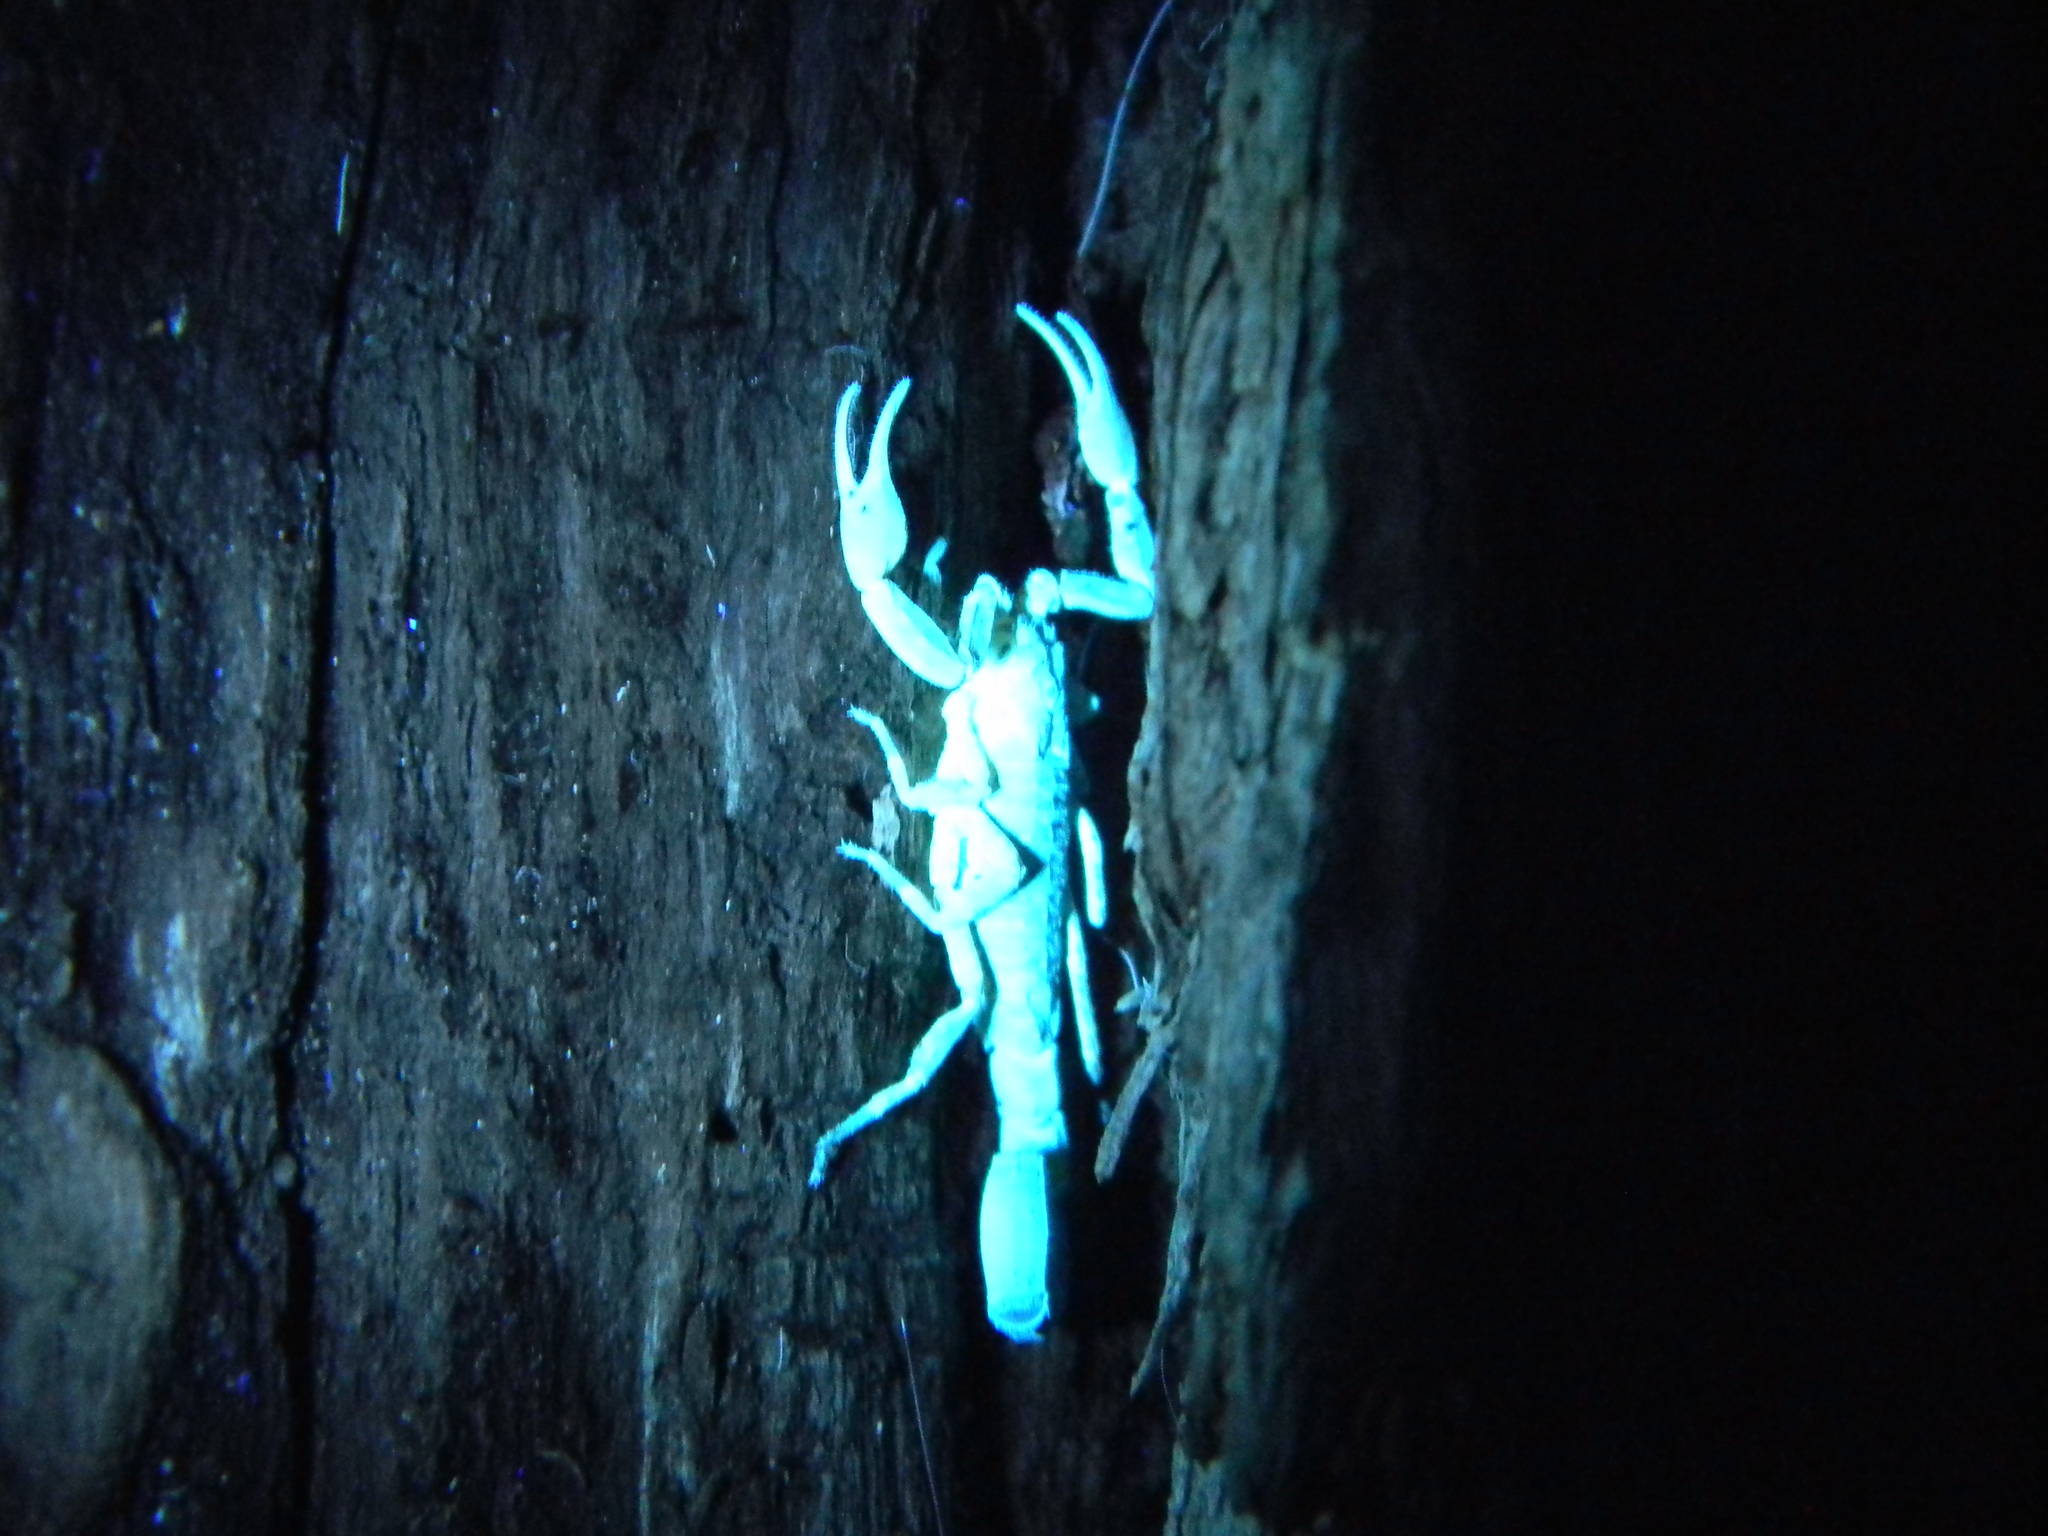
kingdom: Animalia
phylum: Arthropoda
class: Arachnida
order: Scorpiones
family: Buthidae
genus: Tityus
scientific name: Tityus columbianus
